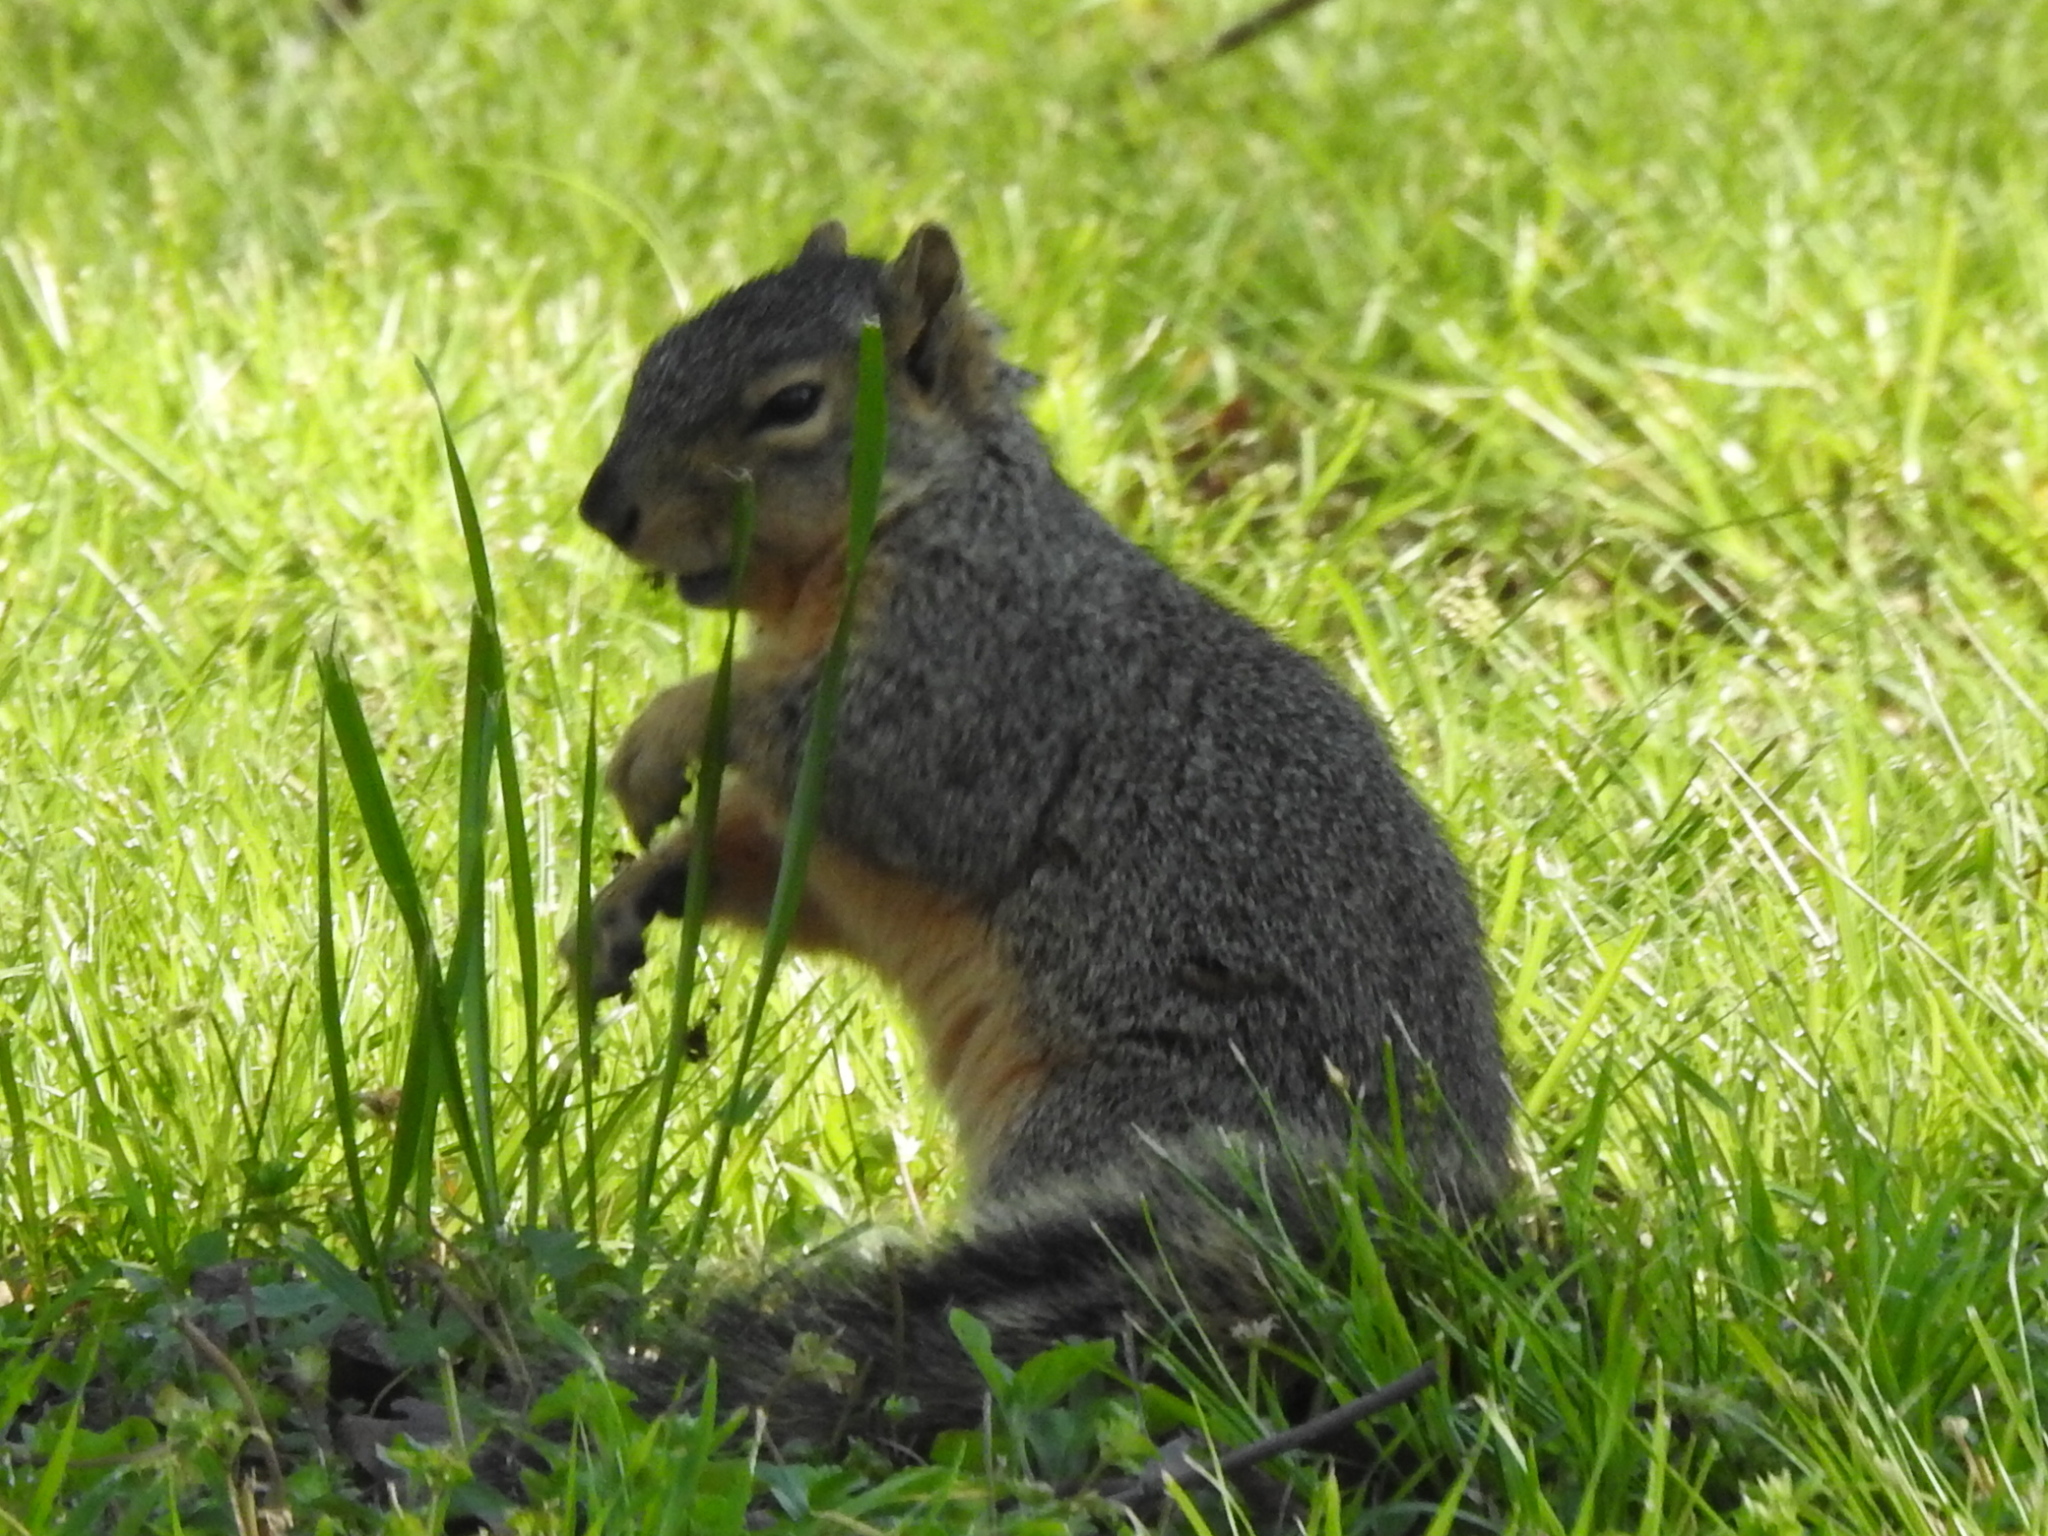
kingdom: Animalia
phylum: Chordata
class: Mammalia
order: Rodentia
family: Sciuridae
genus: Sciurus
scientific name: Sciurus niger
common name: Fox squirrel
